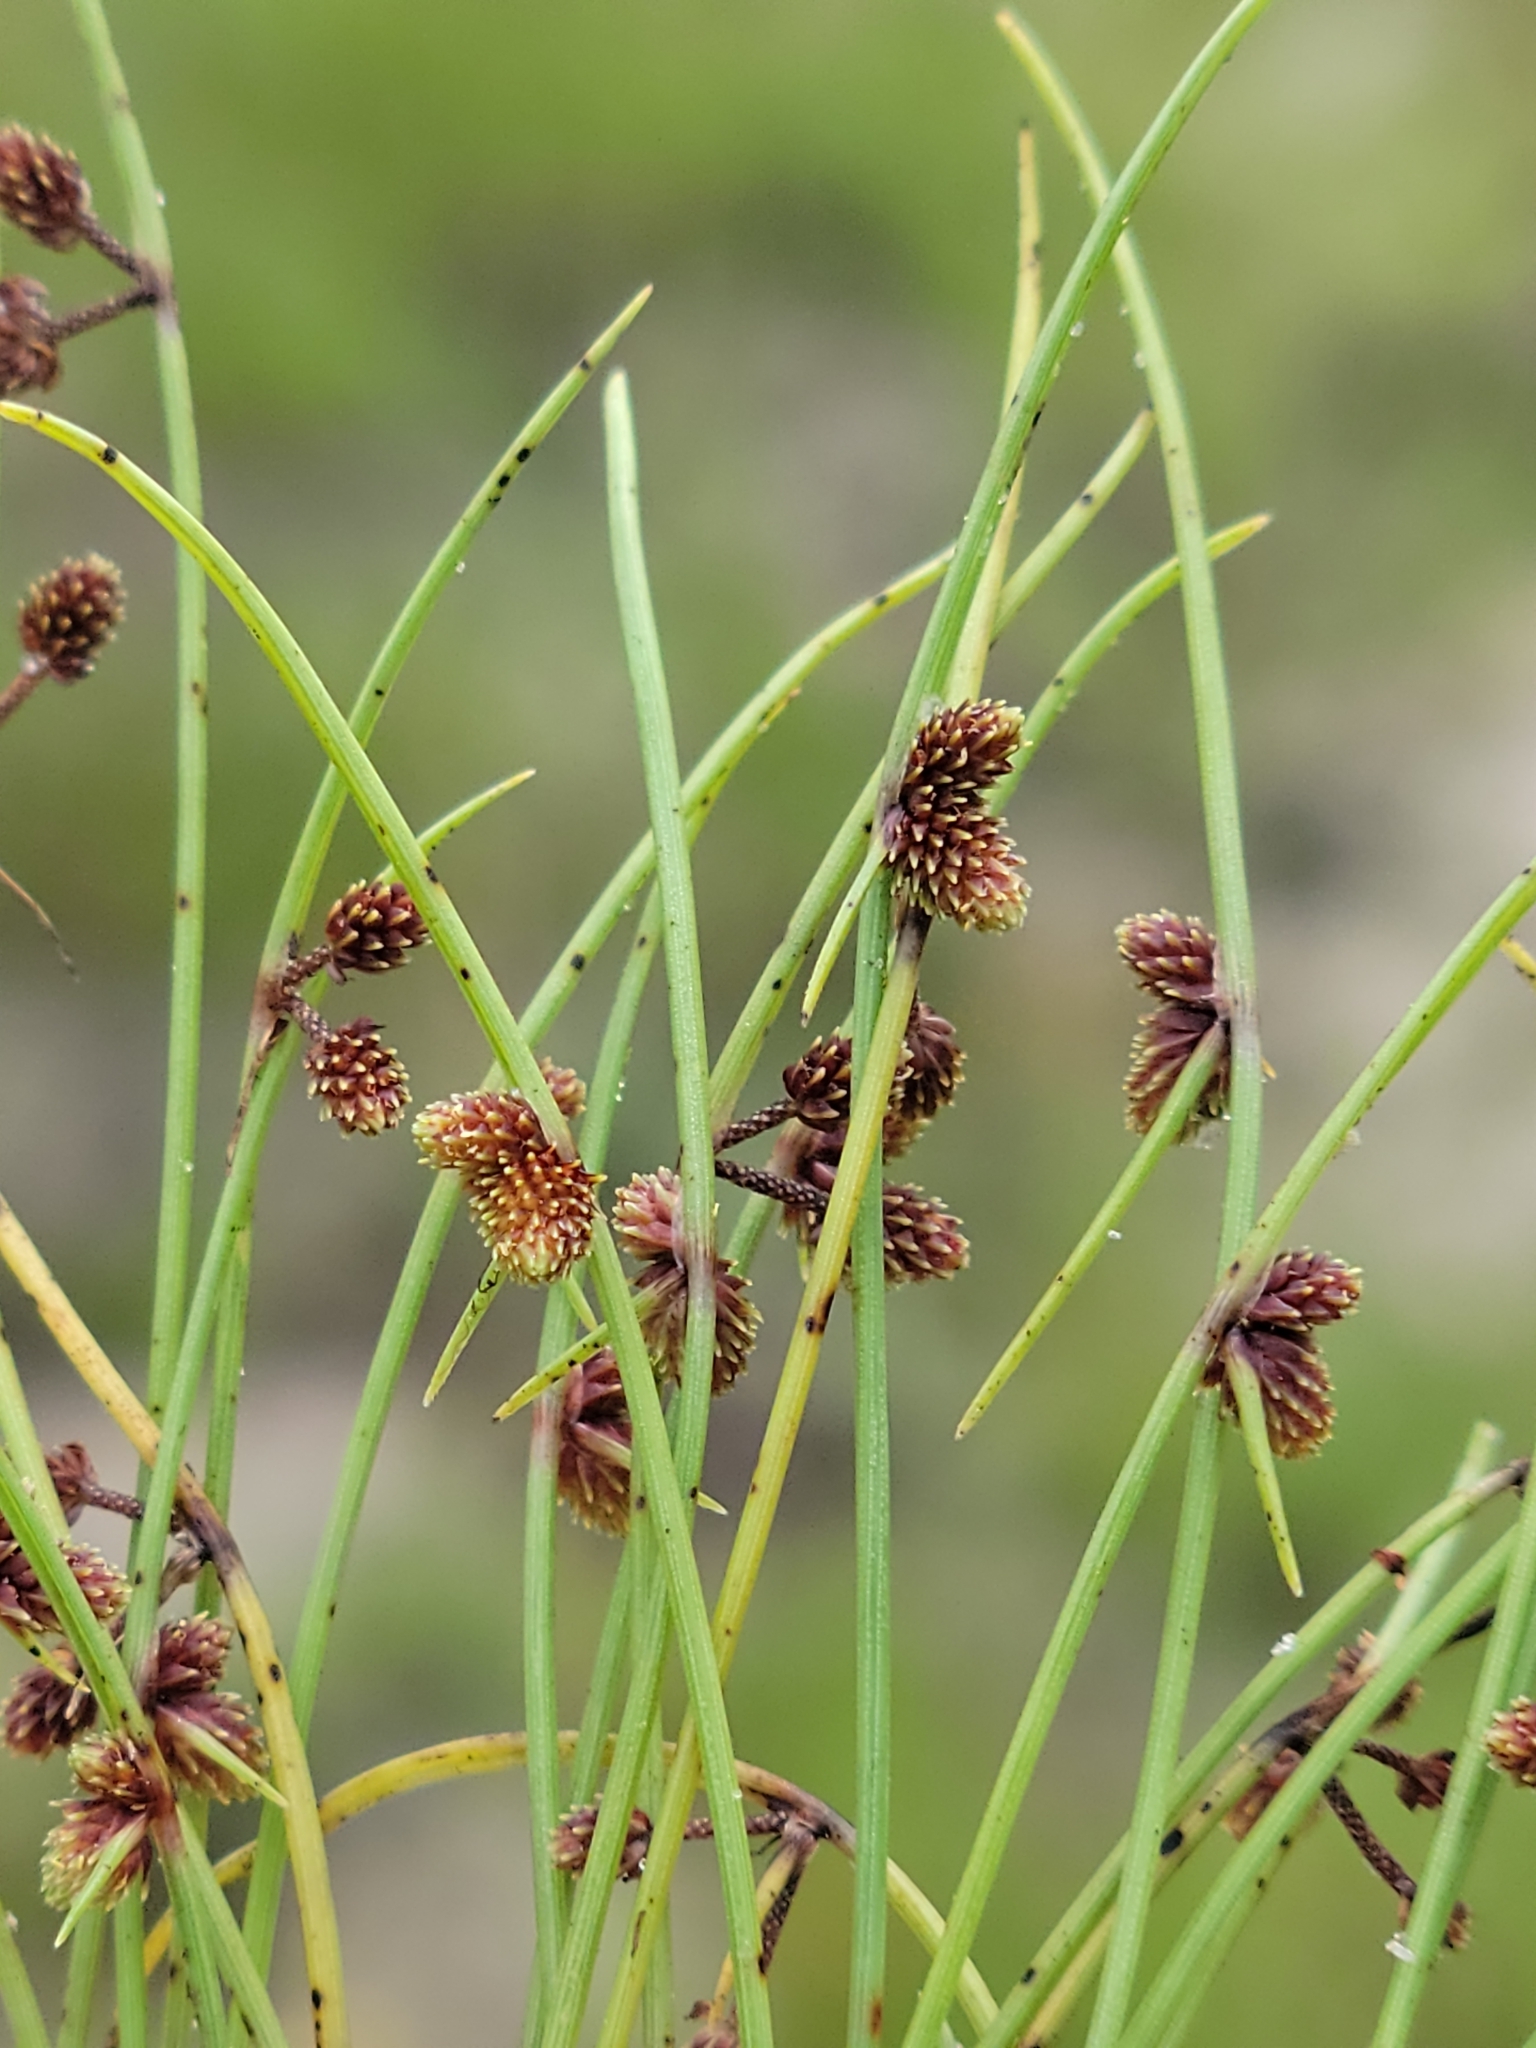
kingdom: Plantae
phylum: Tracheophyta
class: Liliopsida
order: Poales
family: Cyperaceae
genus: Cyperus
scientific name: Cyperus subsquarrosus
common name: Dwarf bulrush
